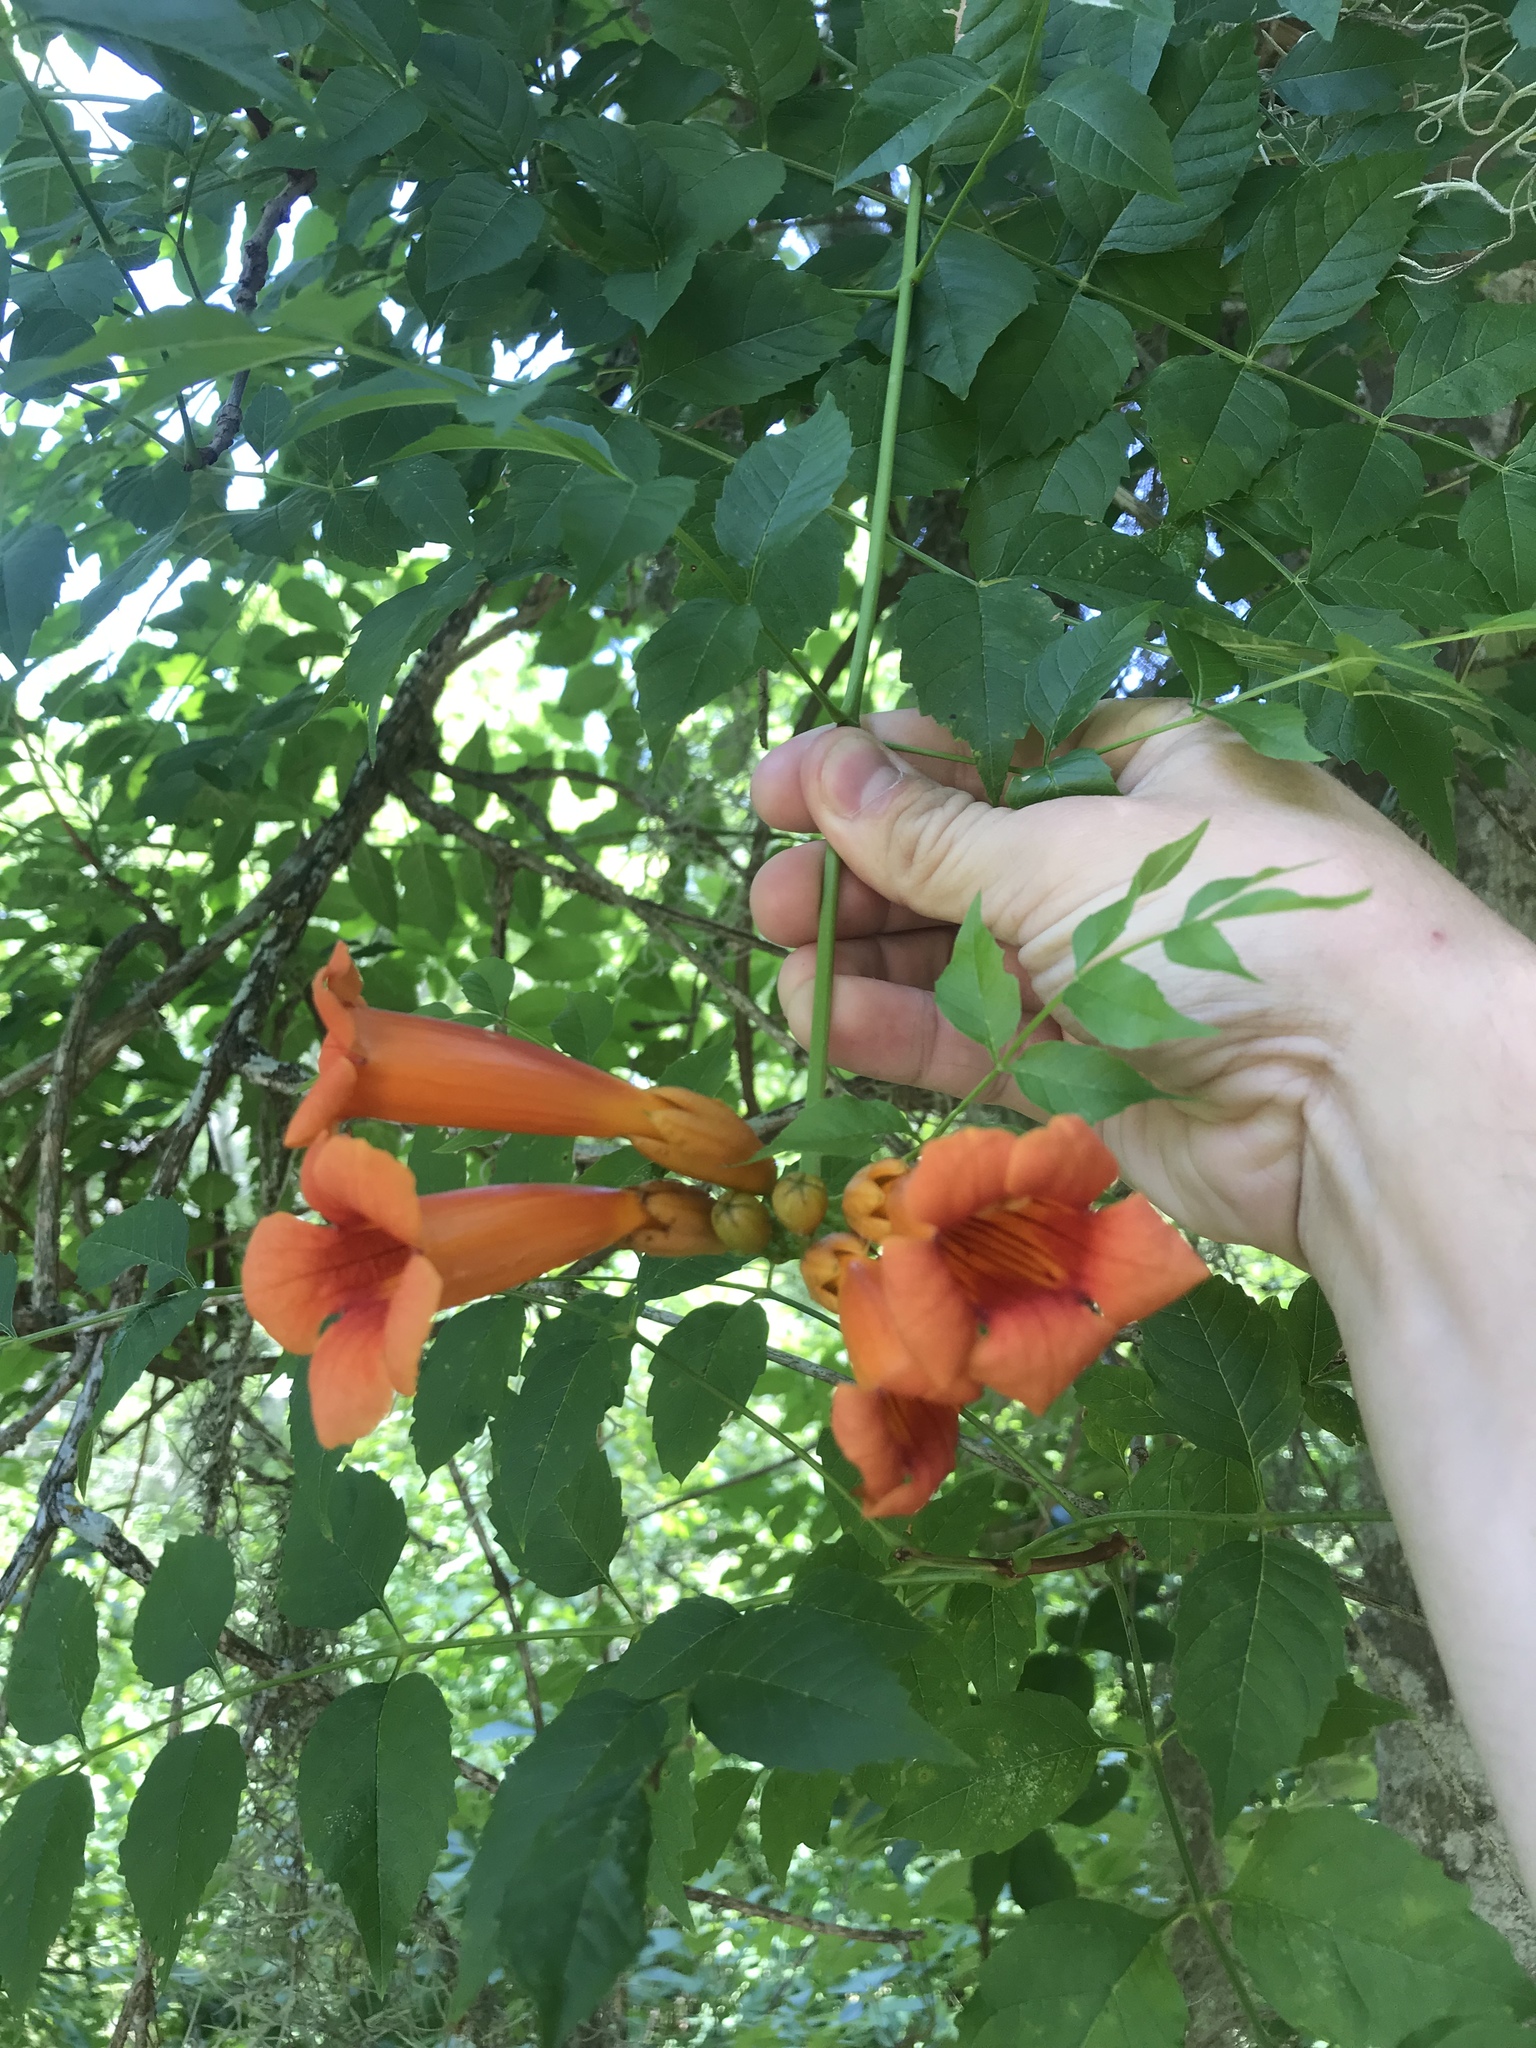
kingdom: Plantae
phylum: Tracheophyta
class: Magnoliopsida
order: Lamiales
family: Bignoniaceae
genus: Campsis
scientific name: Campsis radicans
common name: Trumpet-creeper
